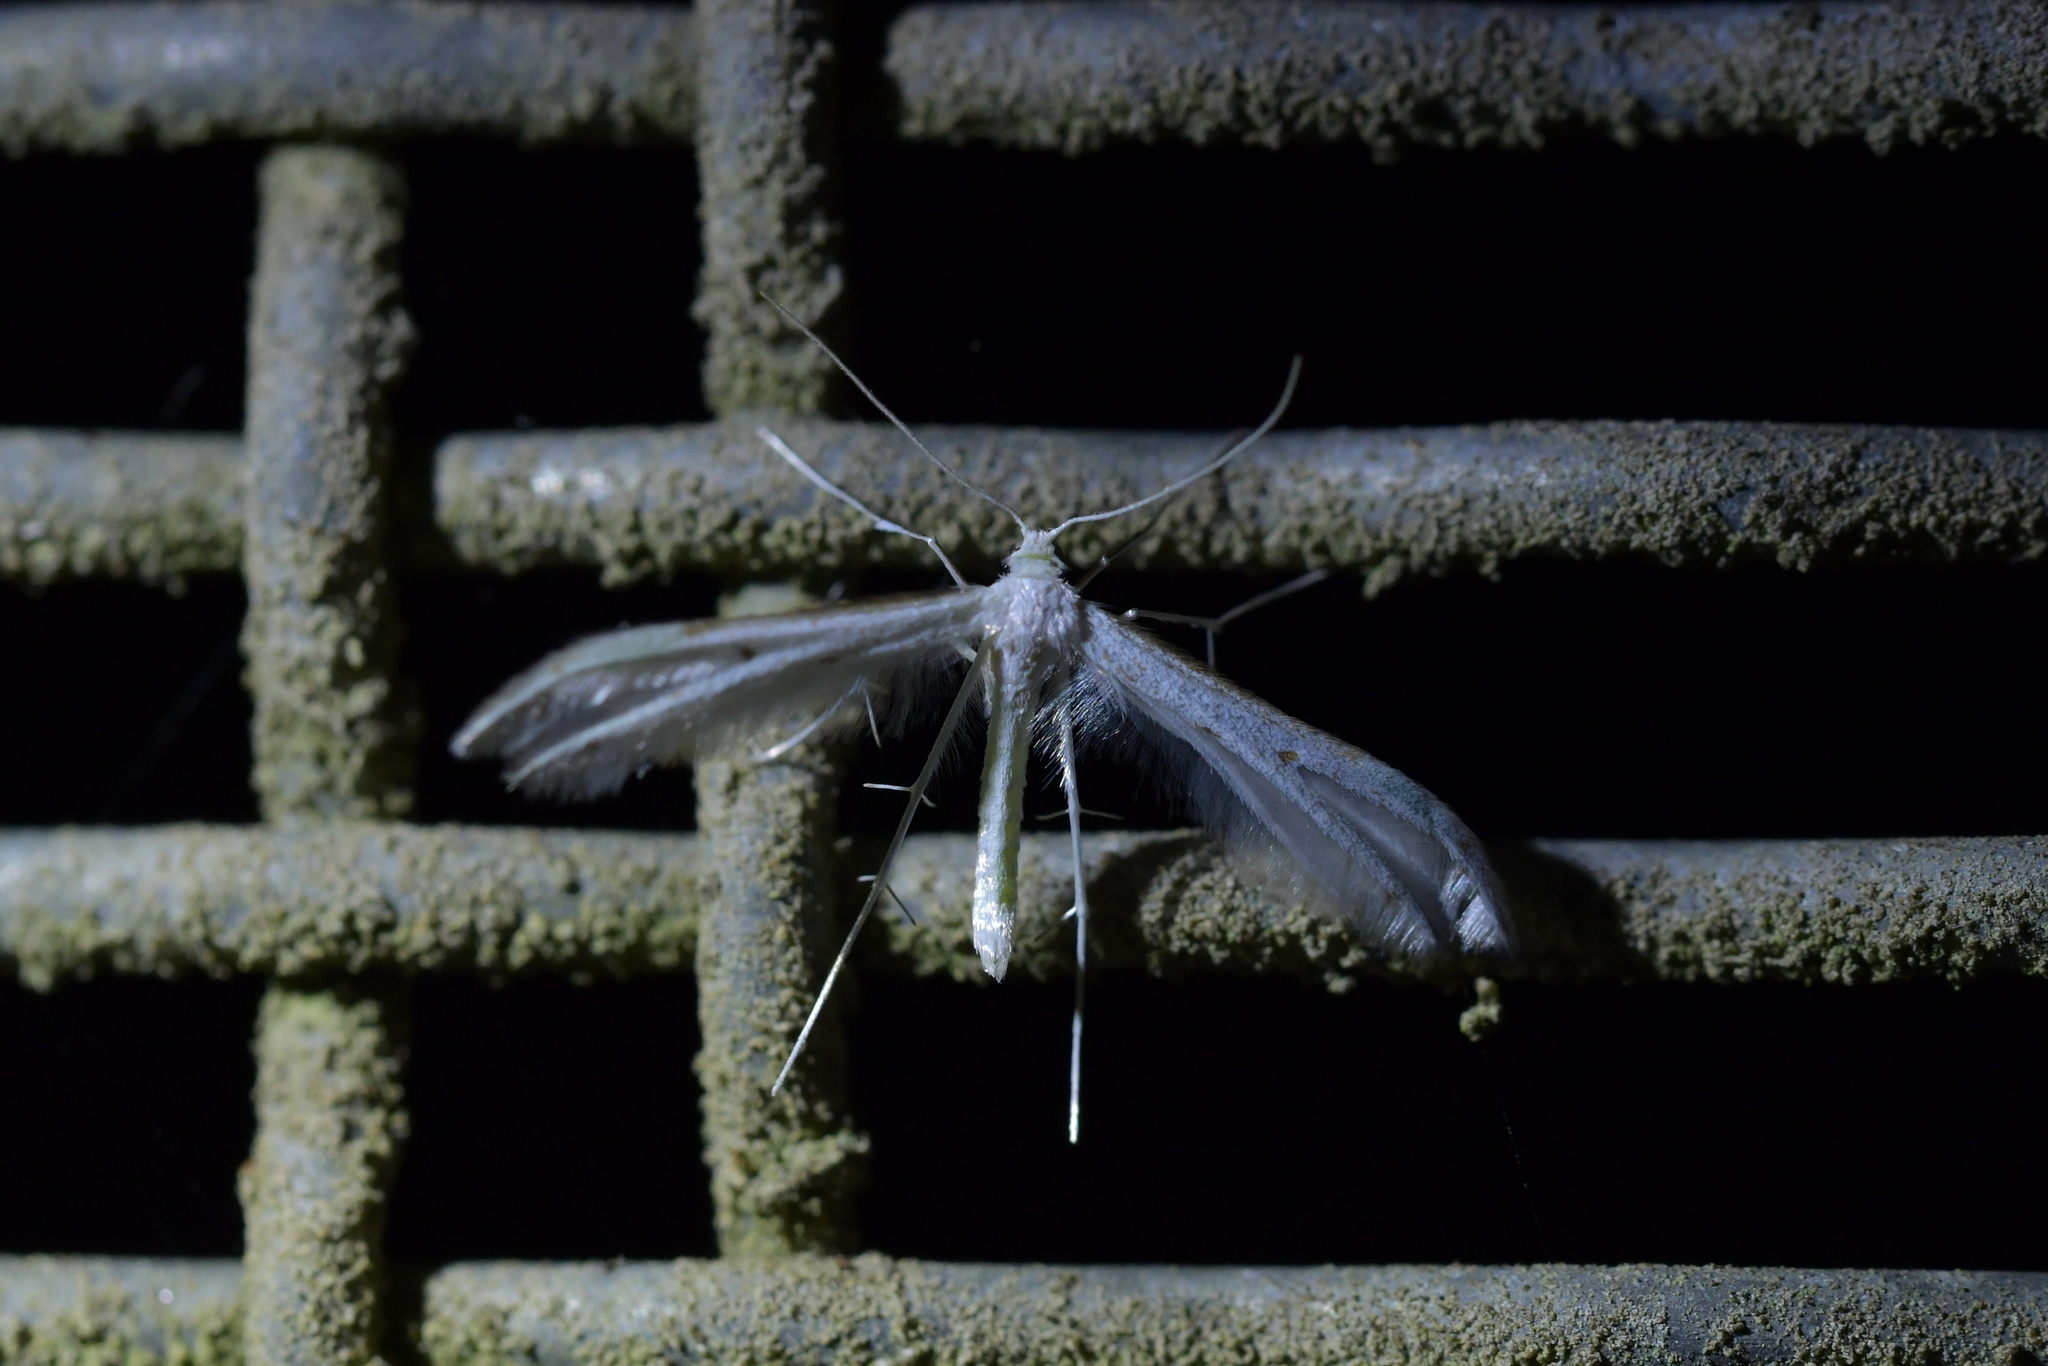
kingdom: Animalia
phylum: Arthropoda
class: Insecta
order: Lepidoptera
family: Pterophoridae
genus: Pterophorus
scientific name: Pterophorus monospilalis
